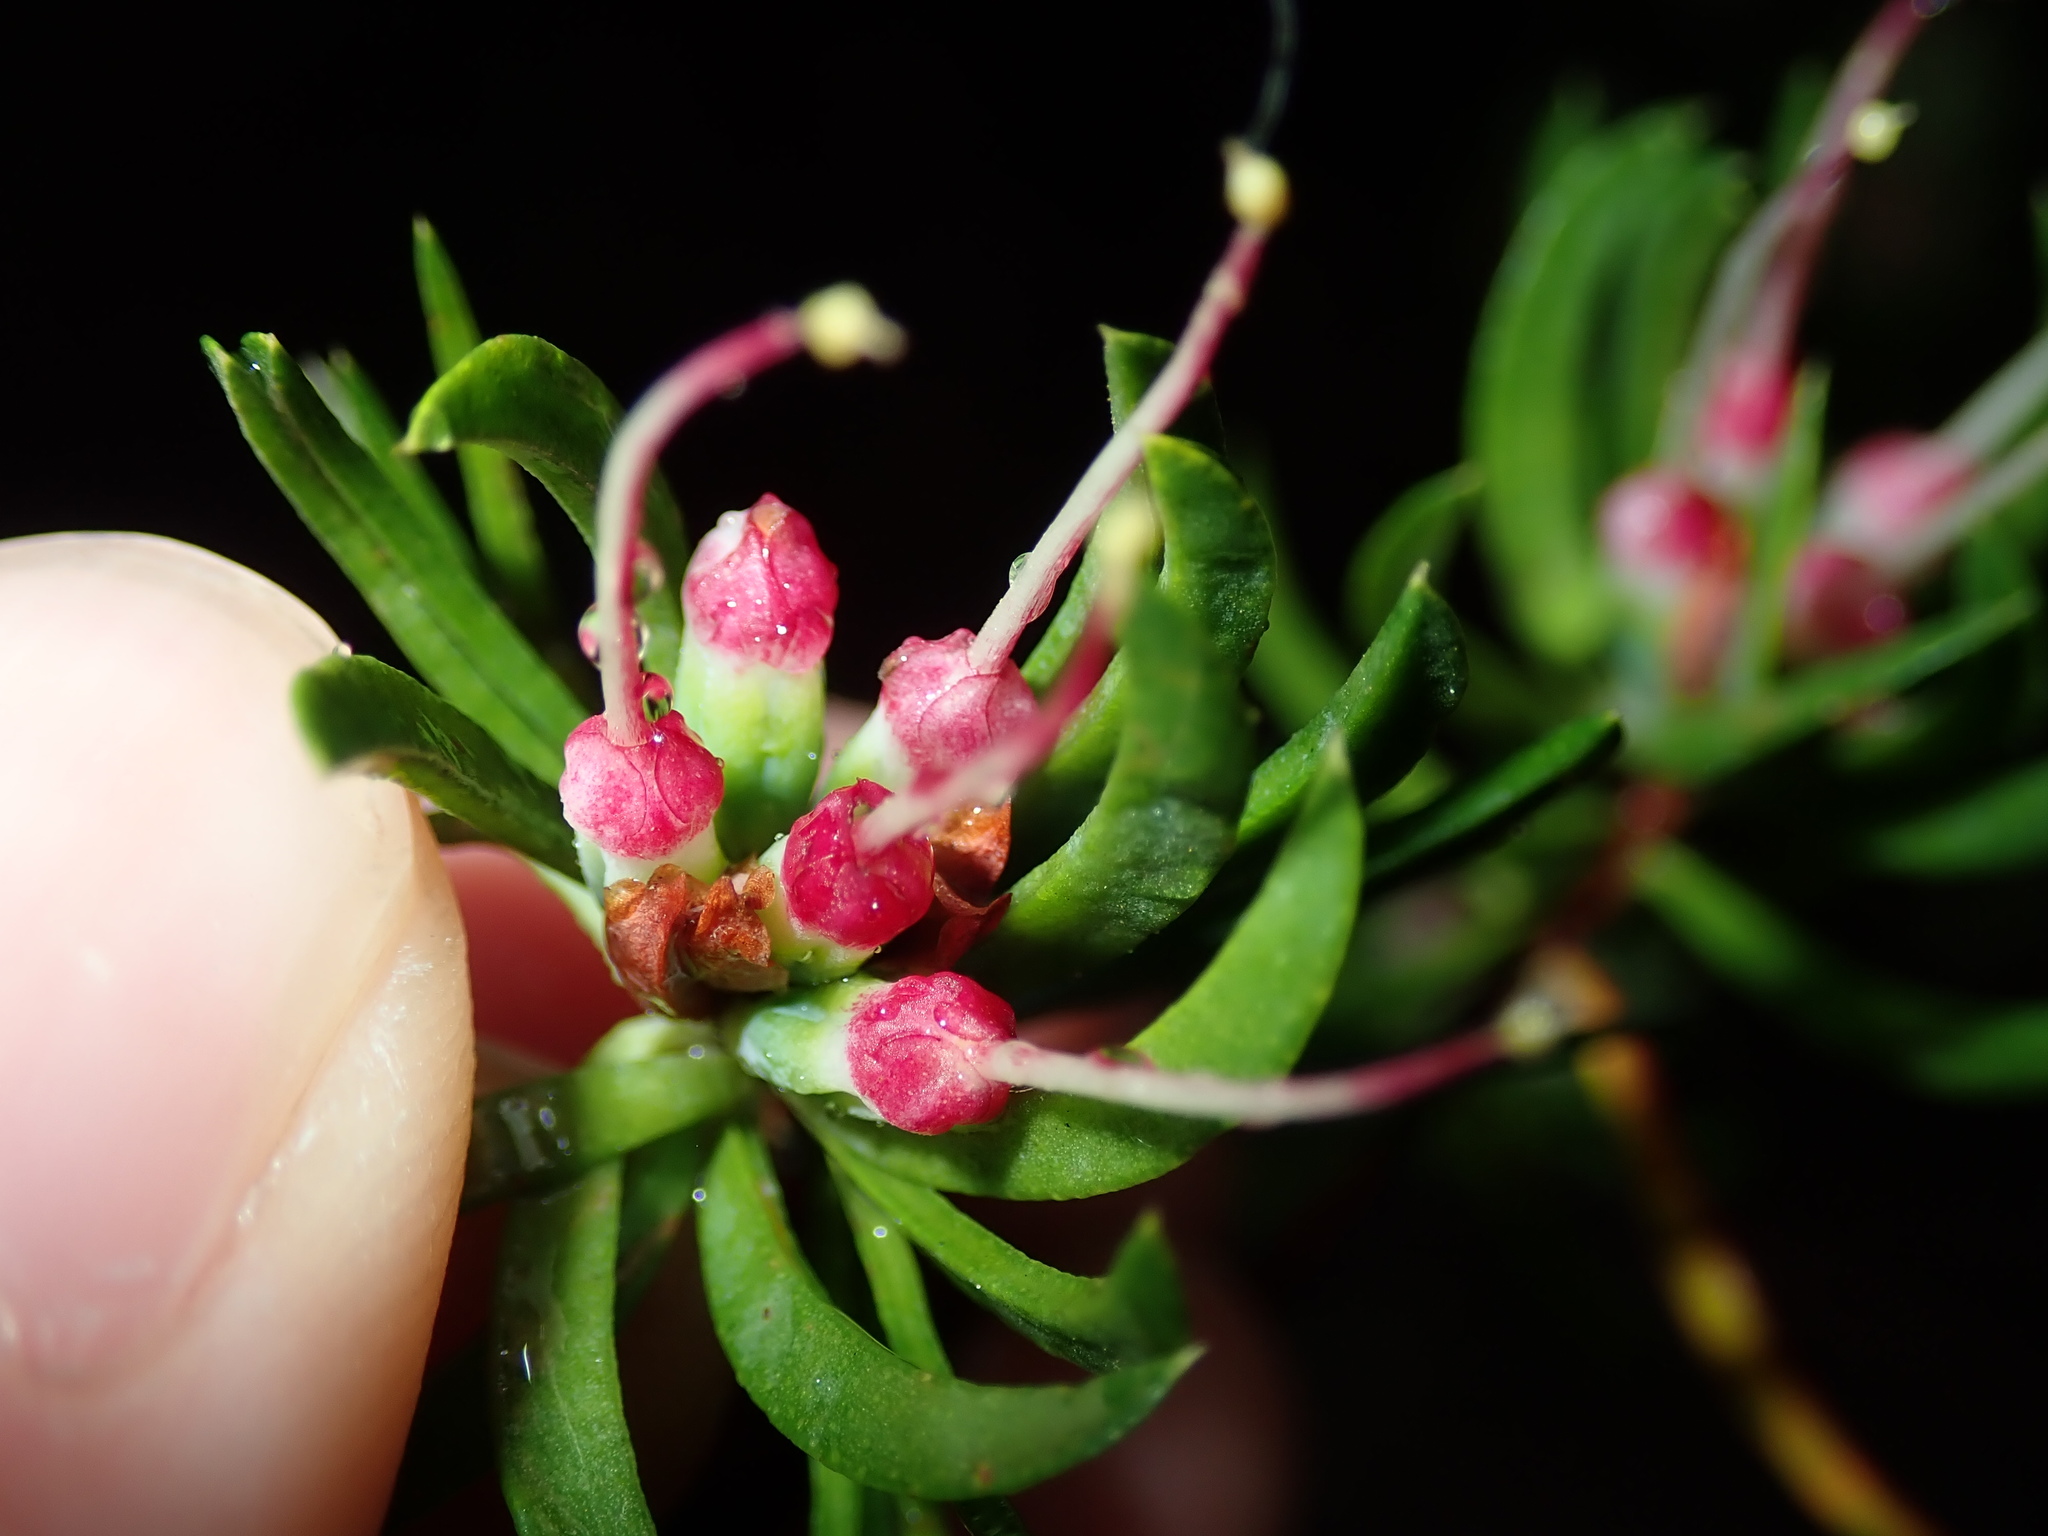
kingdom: Plantae
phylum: Tracheophyta
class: Magnoliopsida
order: Myrtales
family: Myrtaceae
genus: Darwinia
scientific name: Darwinia procera
